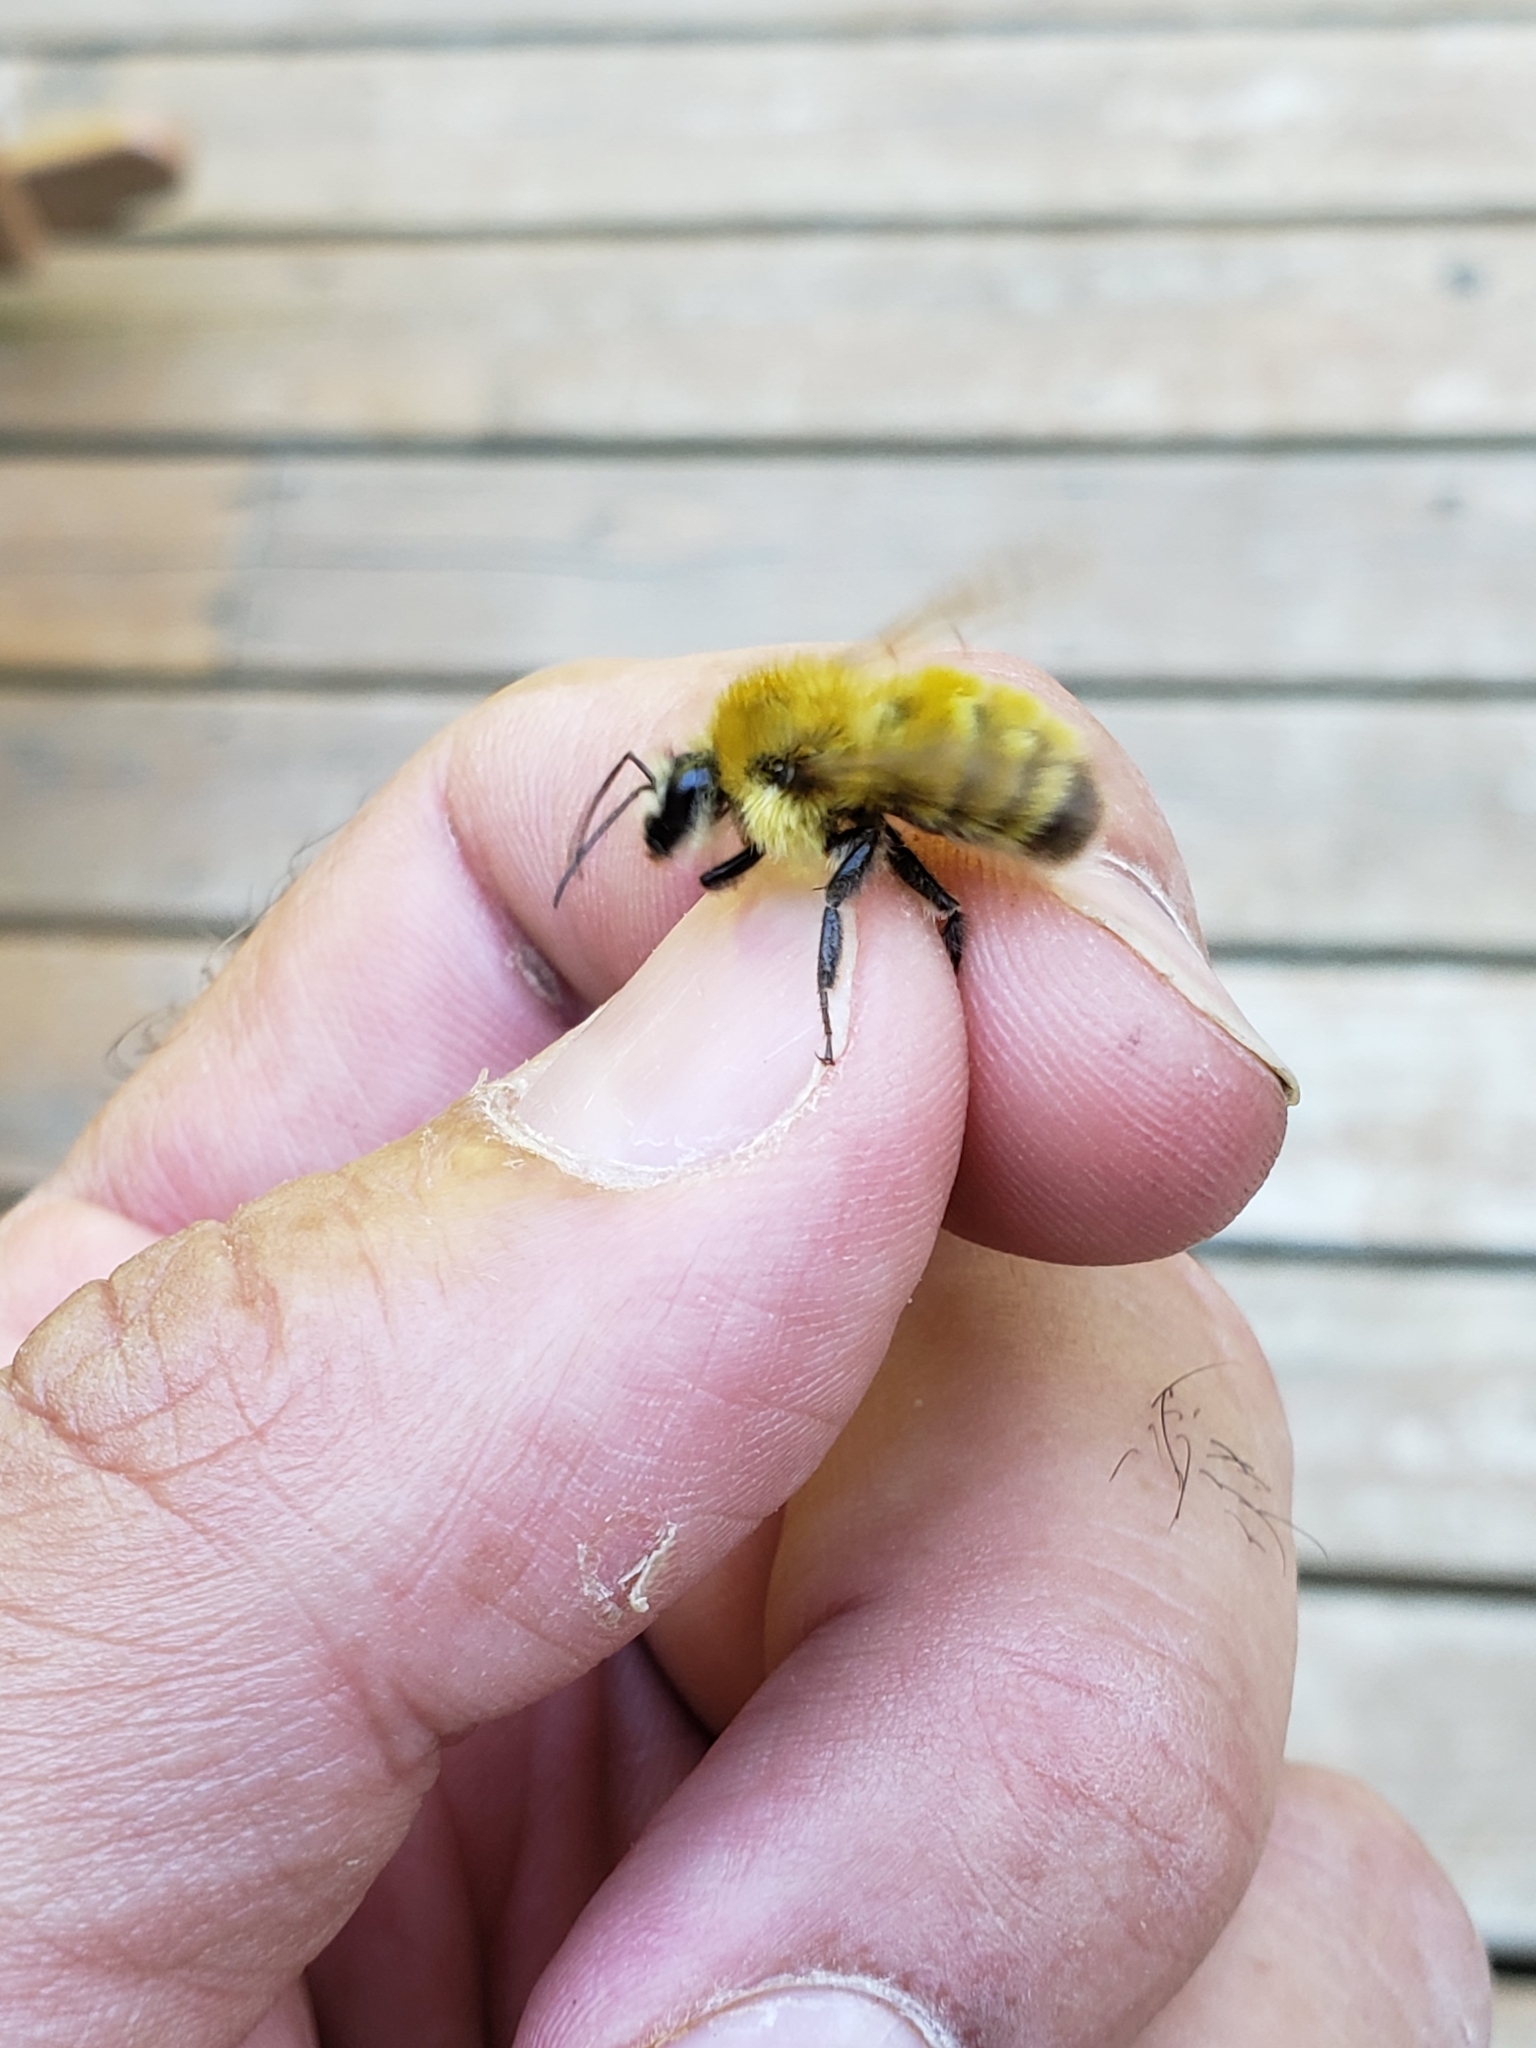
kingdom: Animalia
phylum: Arthropoda
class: Insecta
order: Hymenoptera
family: Apidae
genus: Bombus
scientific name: Bombus perplexus
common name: Confusing bumble bee
